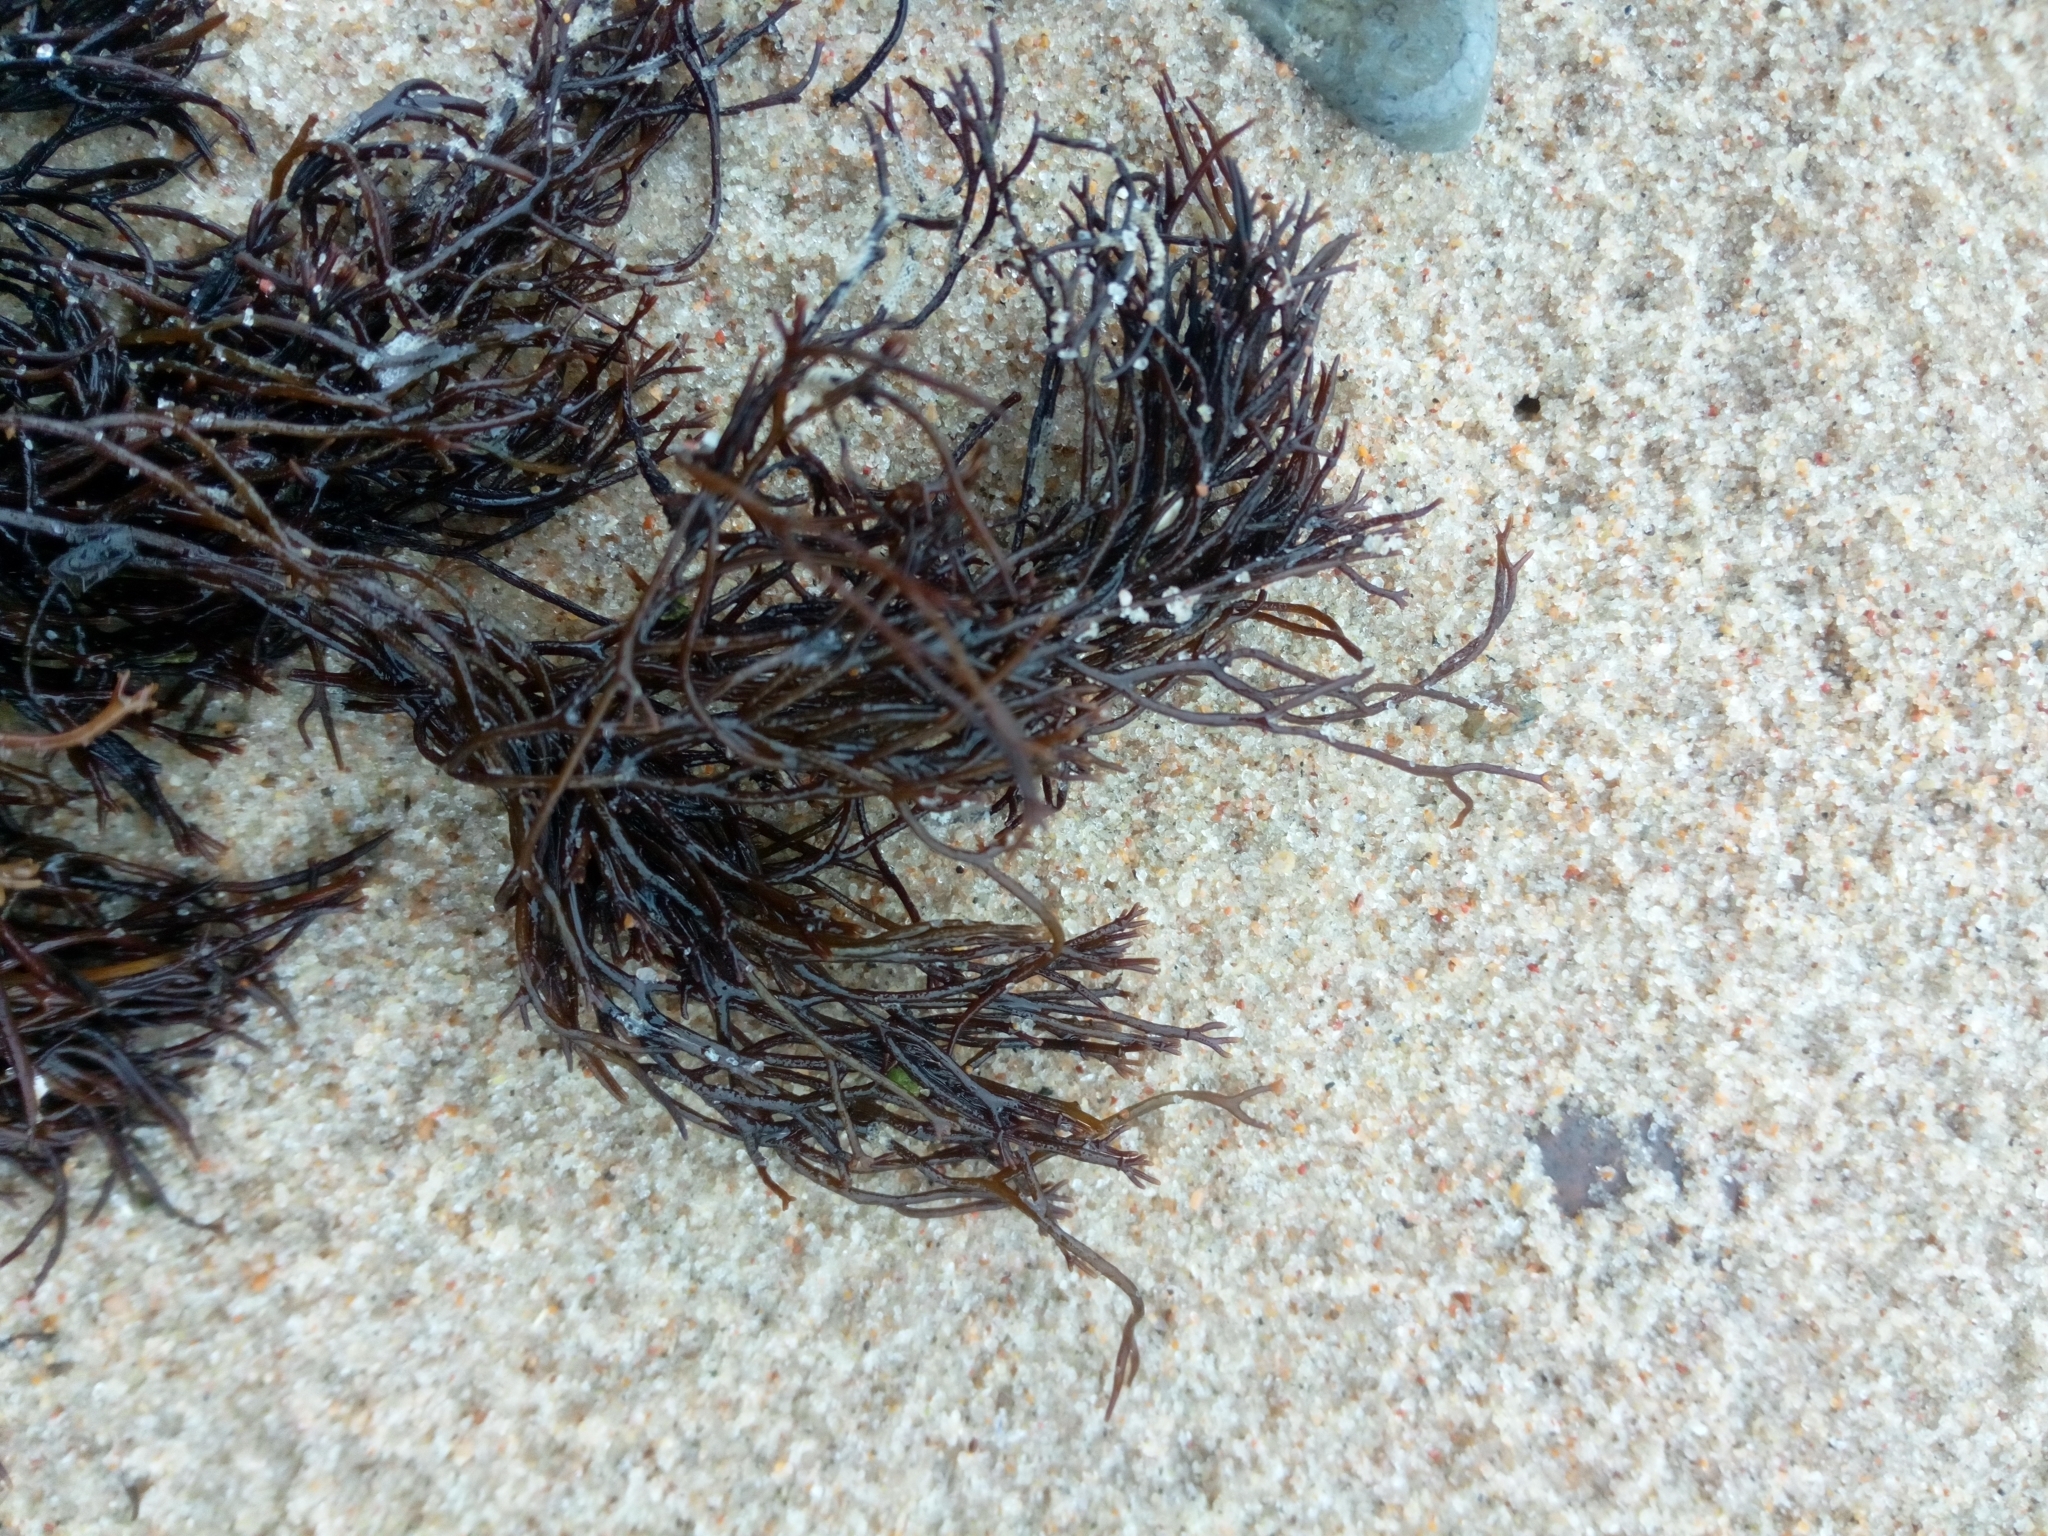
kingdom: Plantae
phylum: Rhodophyta
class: Florideophyceae
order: Gigartinales
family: Furcellariaceae
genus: Furcellaria
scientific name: Furcellaria lumbricalis
